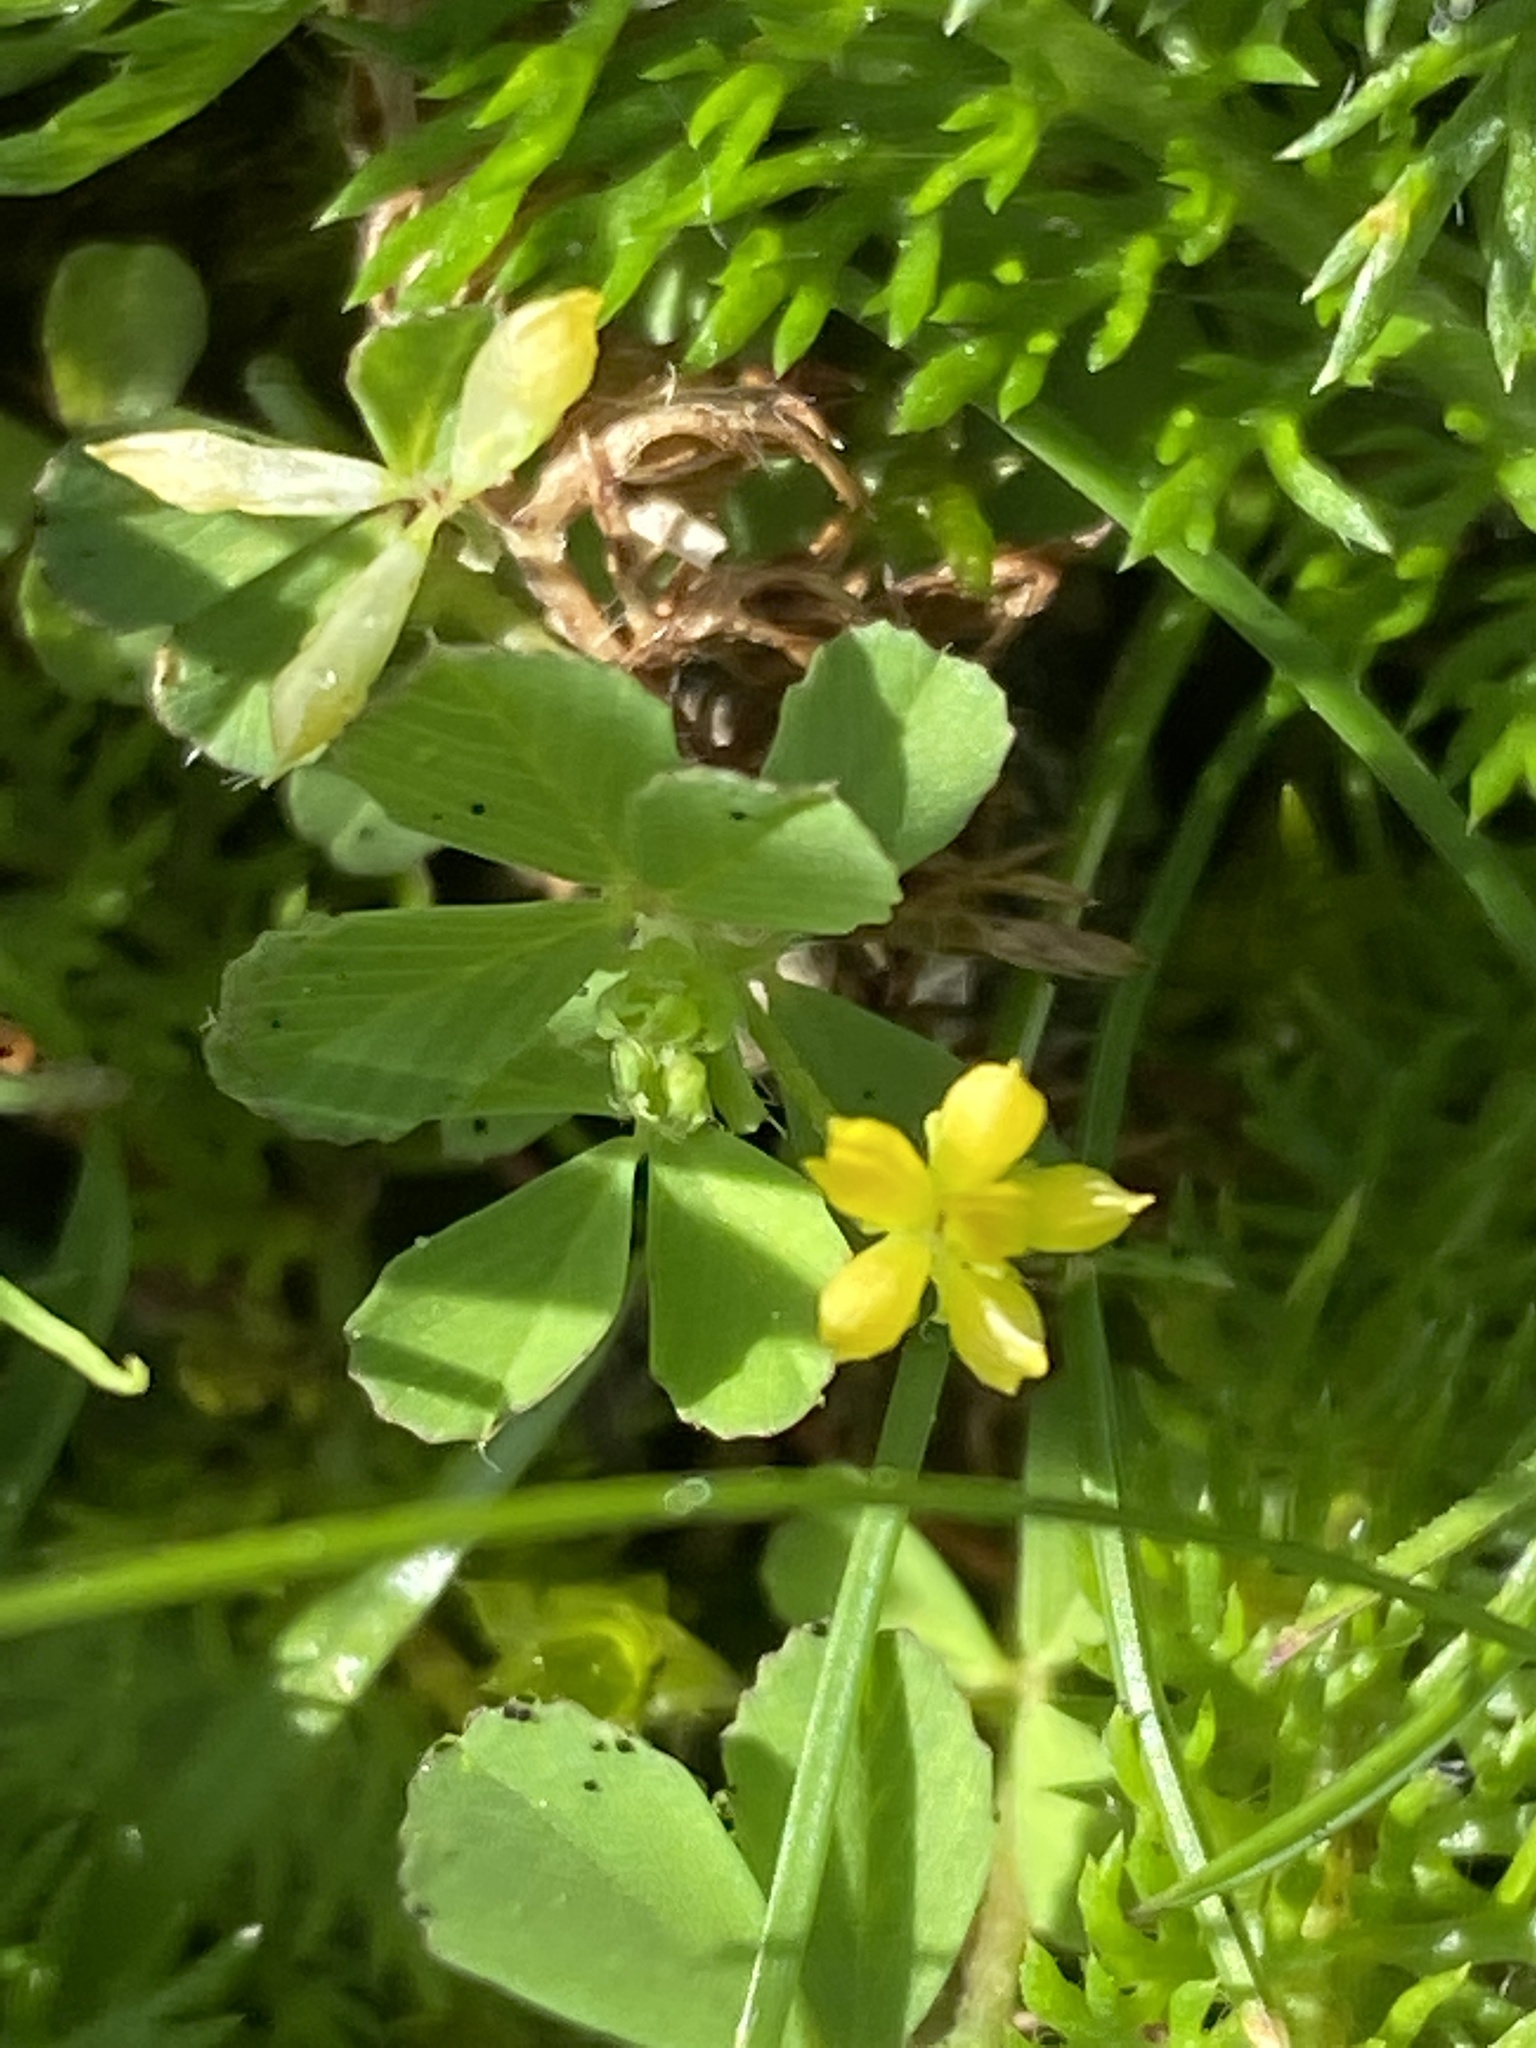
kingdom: Plantae
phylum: Tracheophyta
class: Magnoliopsida
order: Fabales
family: Fabaceae
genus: Trifolium
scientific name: Trifolium dubium
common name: Suckling clover
